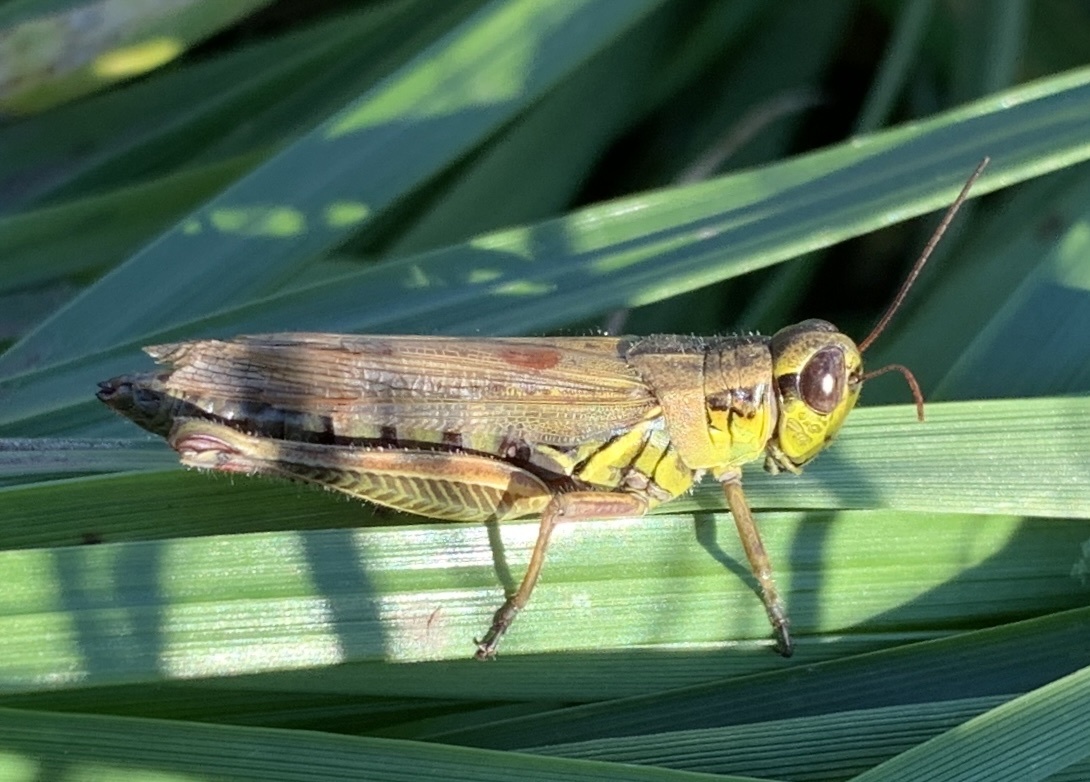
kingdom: Animalia
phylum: Arthropoda
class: Insecta
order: Orthoptera
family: Acrididae
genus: Melanoplus
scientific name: Melanoplus femurrubrum
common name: Red-legged grasshopper
